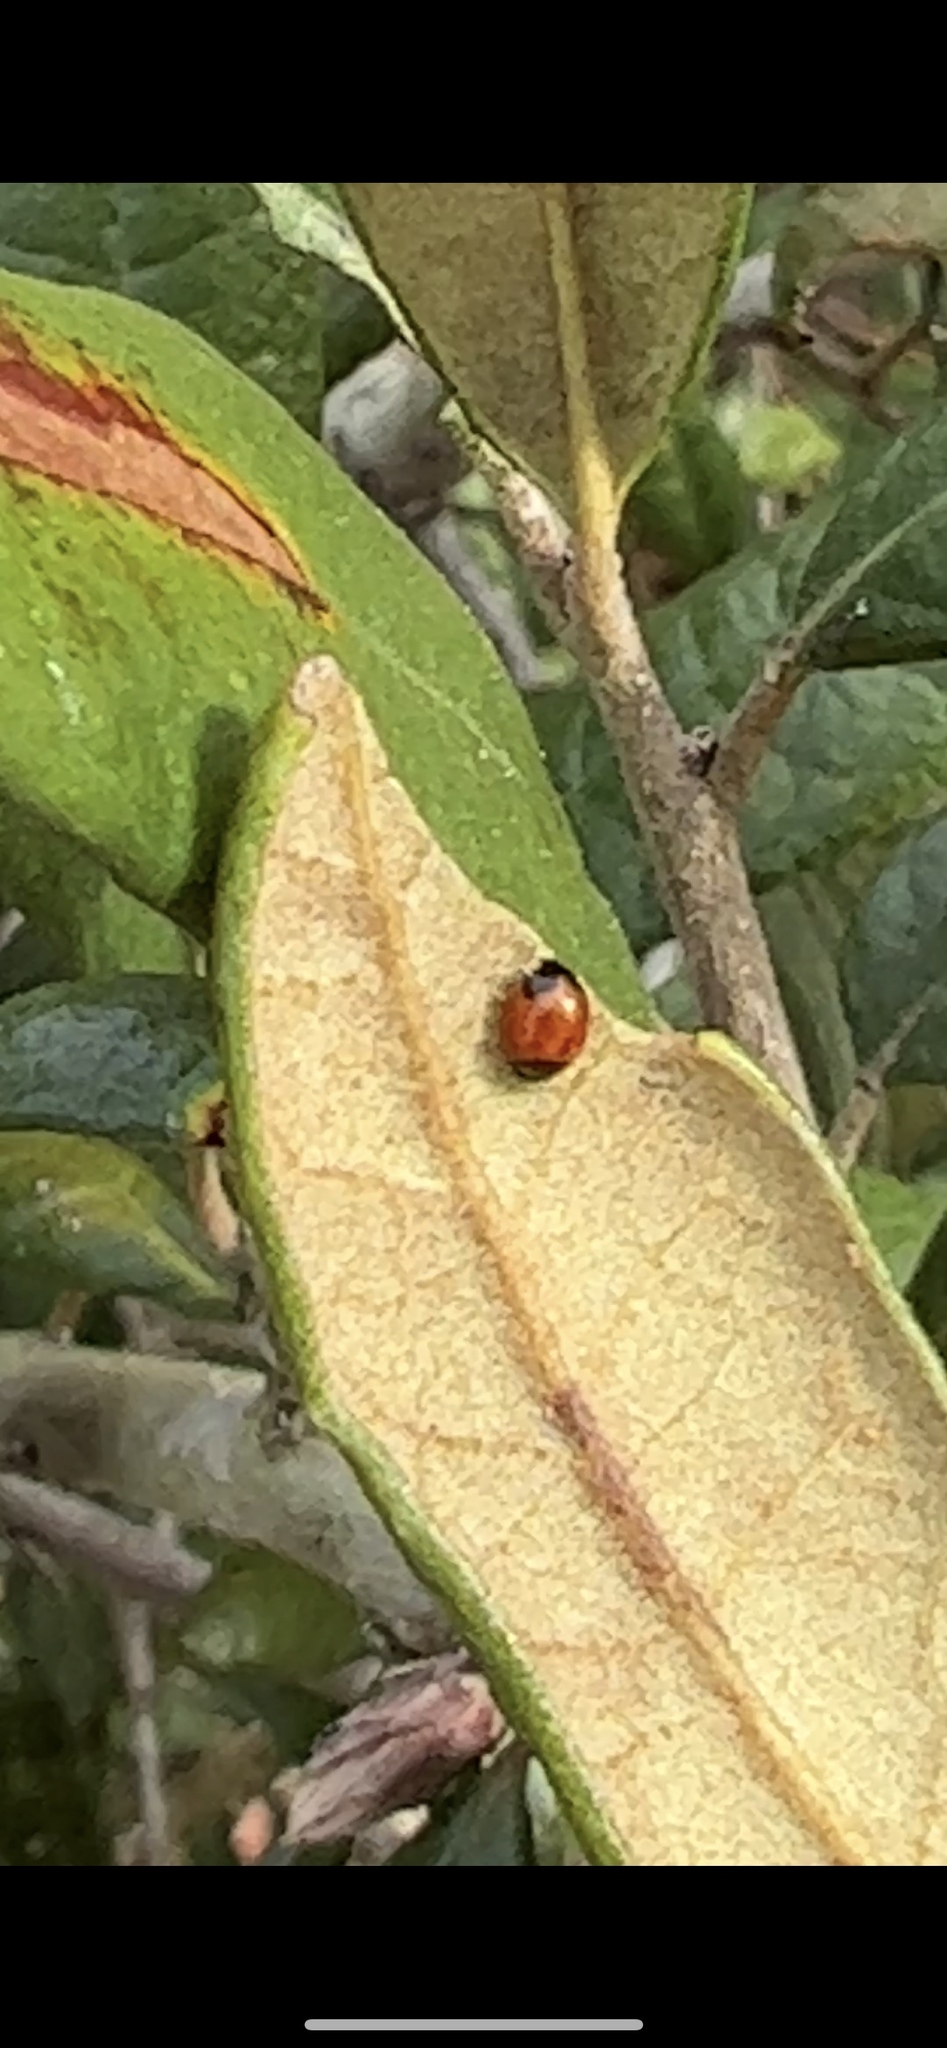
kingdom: Animalia
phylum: Arthropoda
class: Insecta
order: Coleoptera
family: Coccinellidae
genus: Exochomus
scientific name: Exochomus childreni
